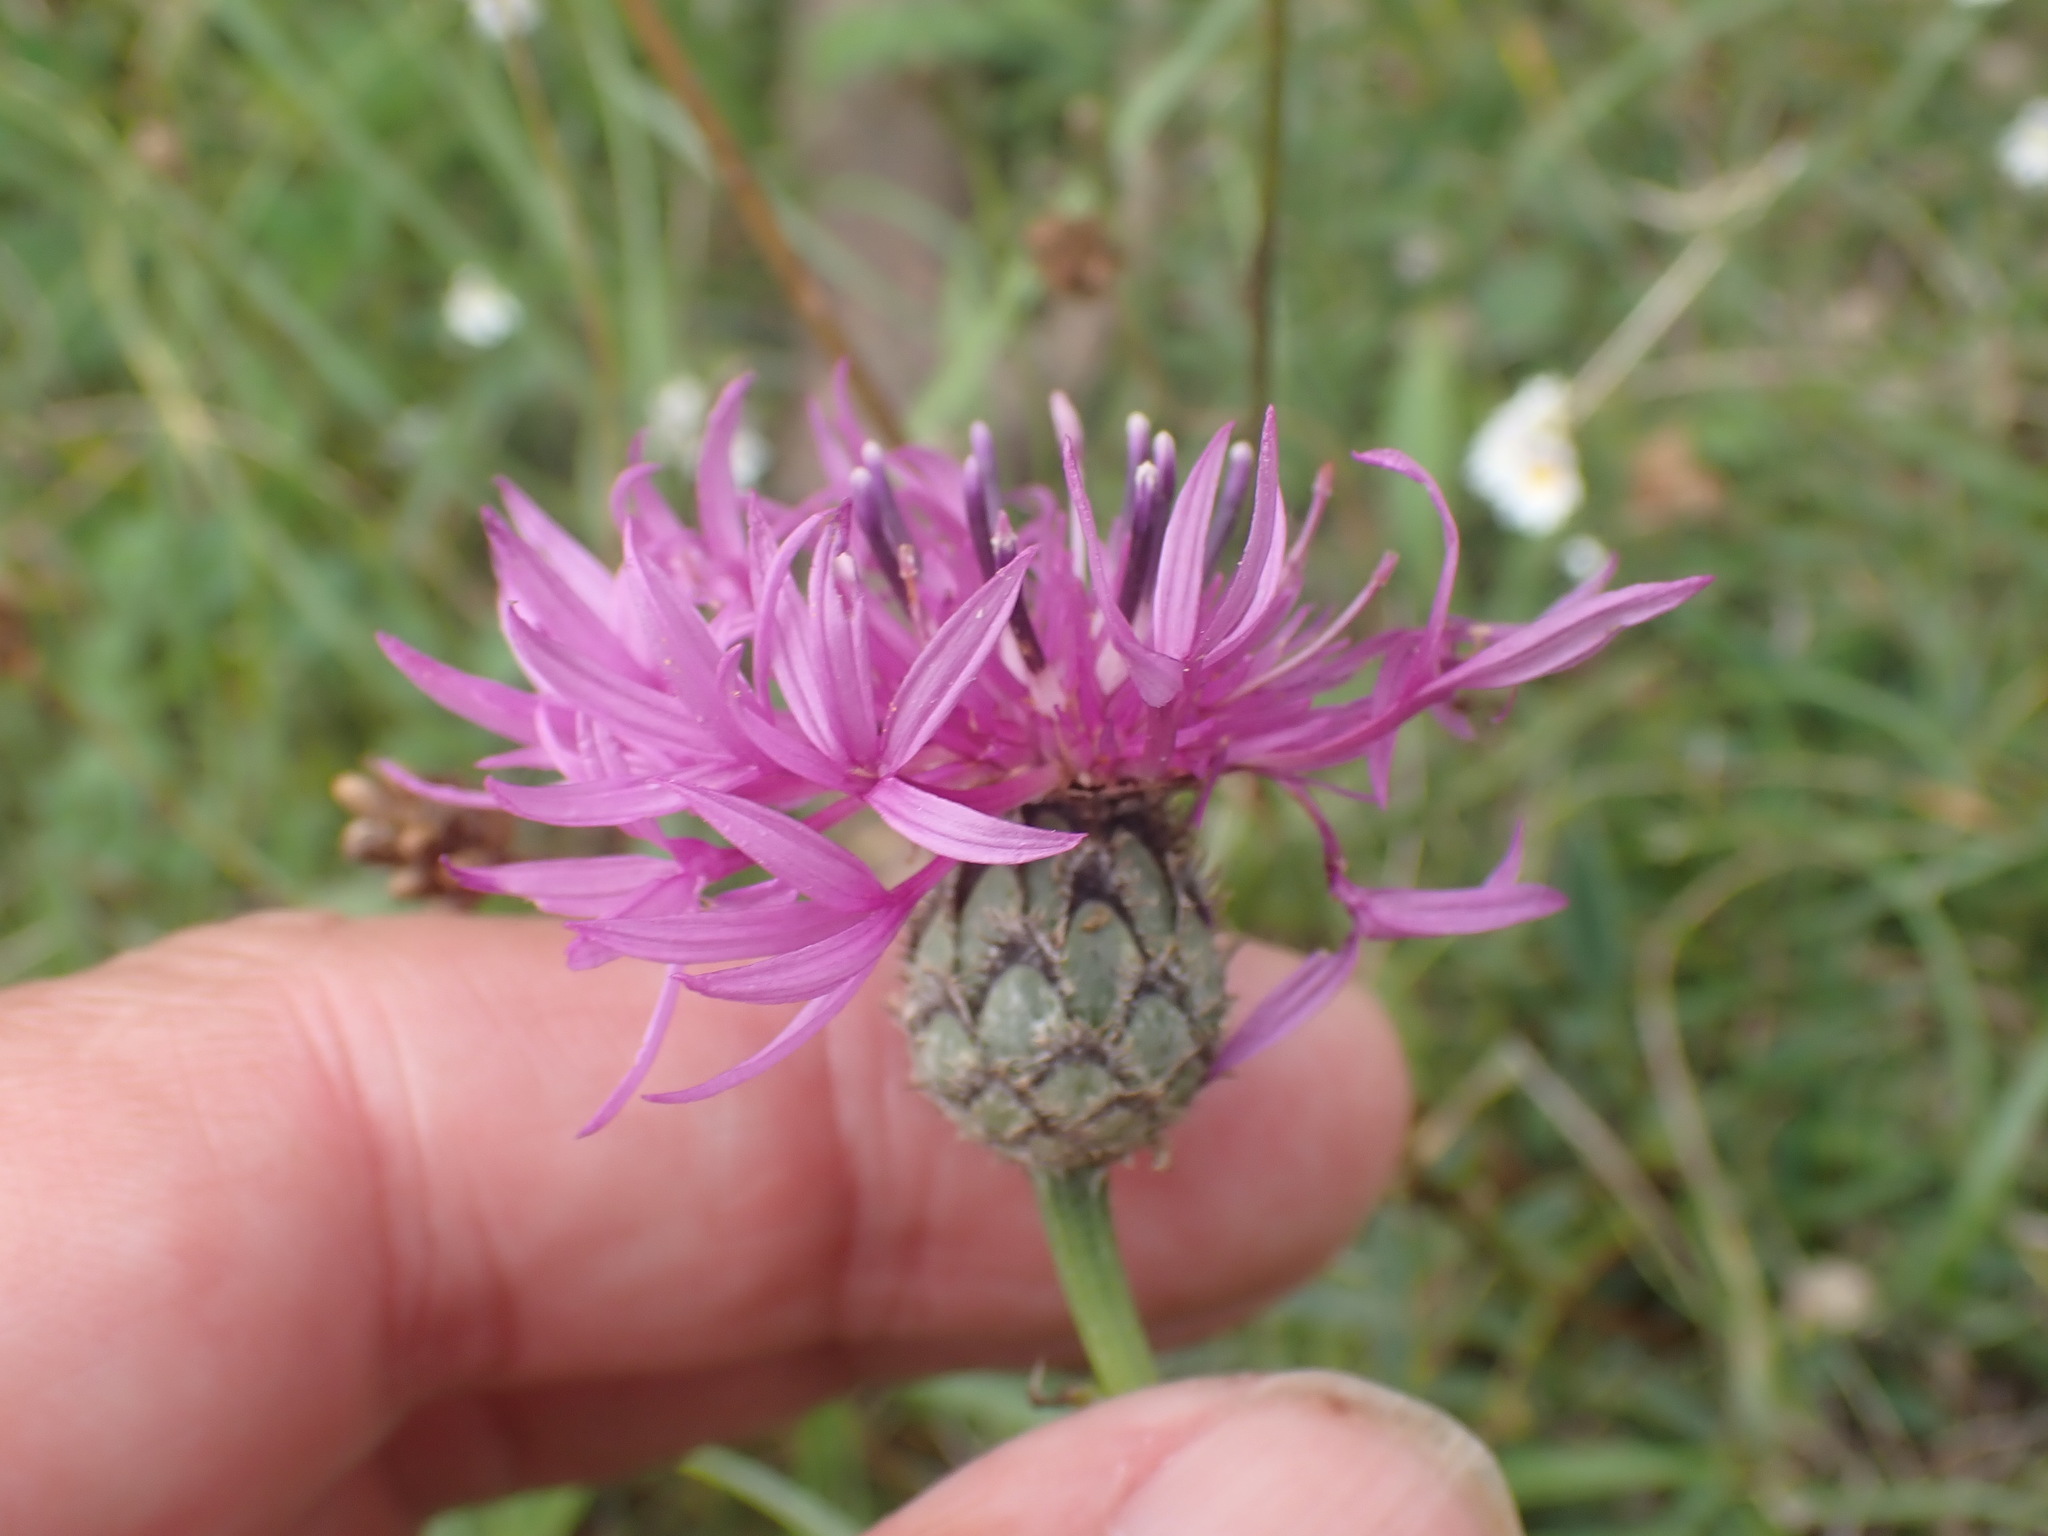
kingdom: Plantae
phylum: Tracheophyta
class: Magnoliopsida
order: Asterales
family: Asteraceae
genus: Centaurea
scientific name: Centaurea scabiosa
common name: Greater knapweed
